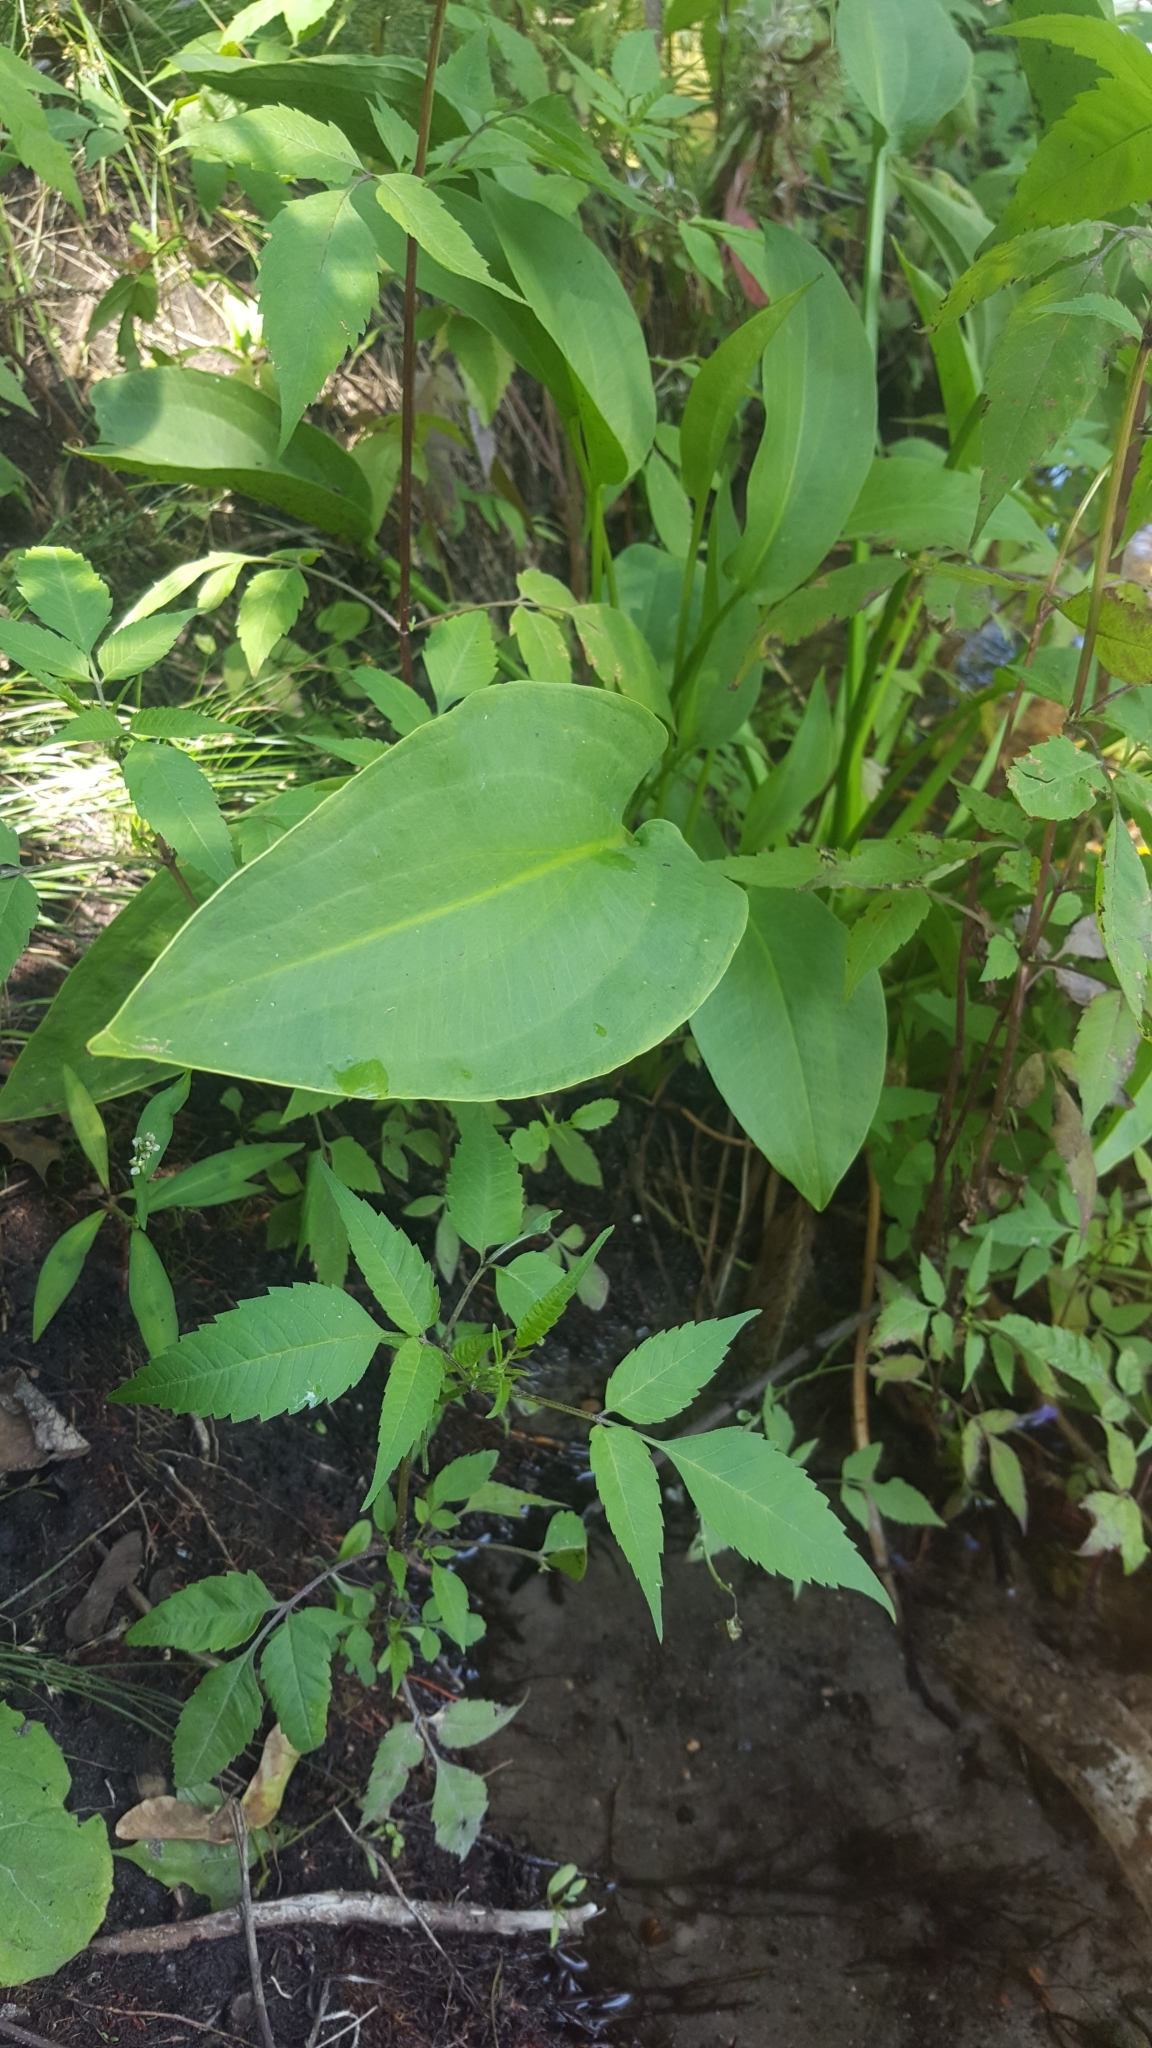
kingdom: Plantae
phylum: Tracheophyta
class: Liliopsida
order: Alismatales
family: Alismataceae
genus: Alisma
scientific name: Alisma plantago-aquatica
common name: Water-plantain
